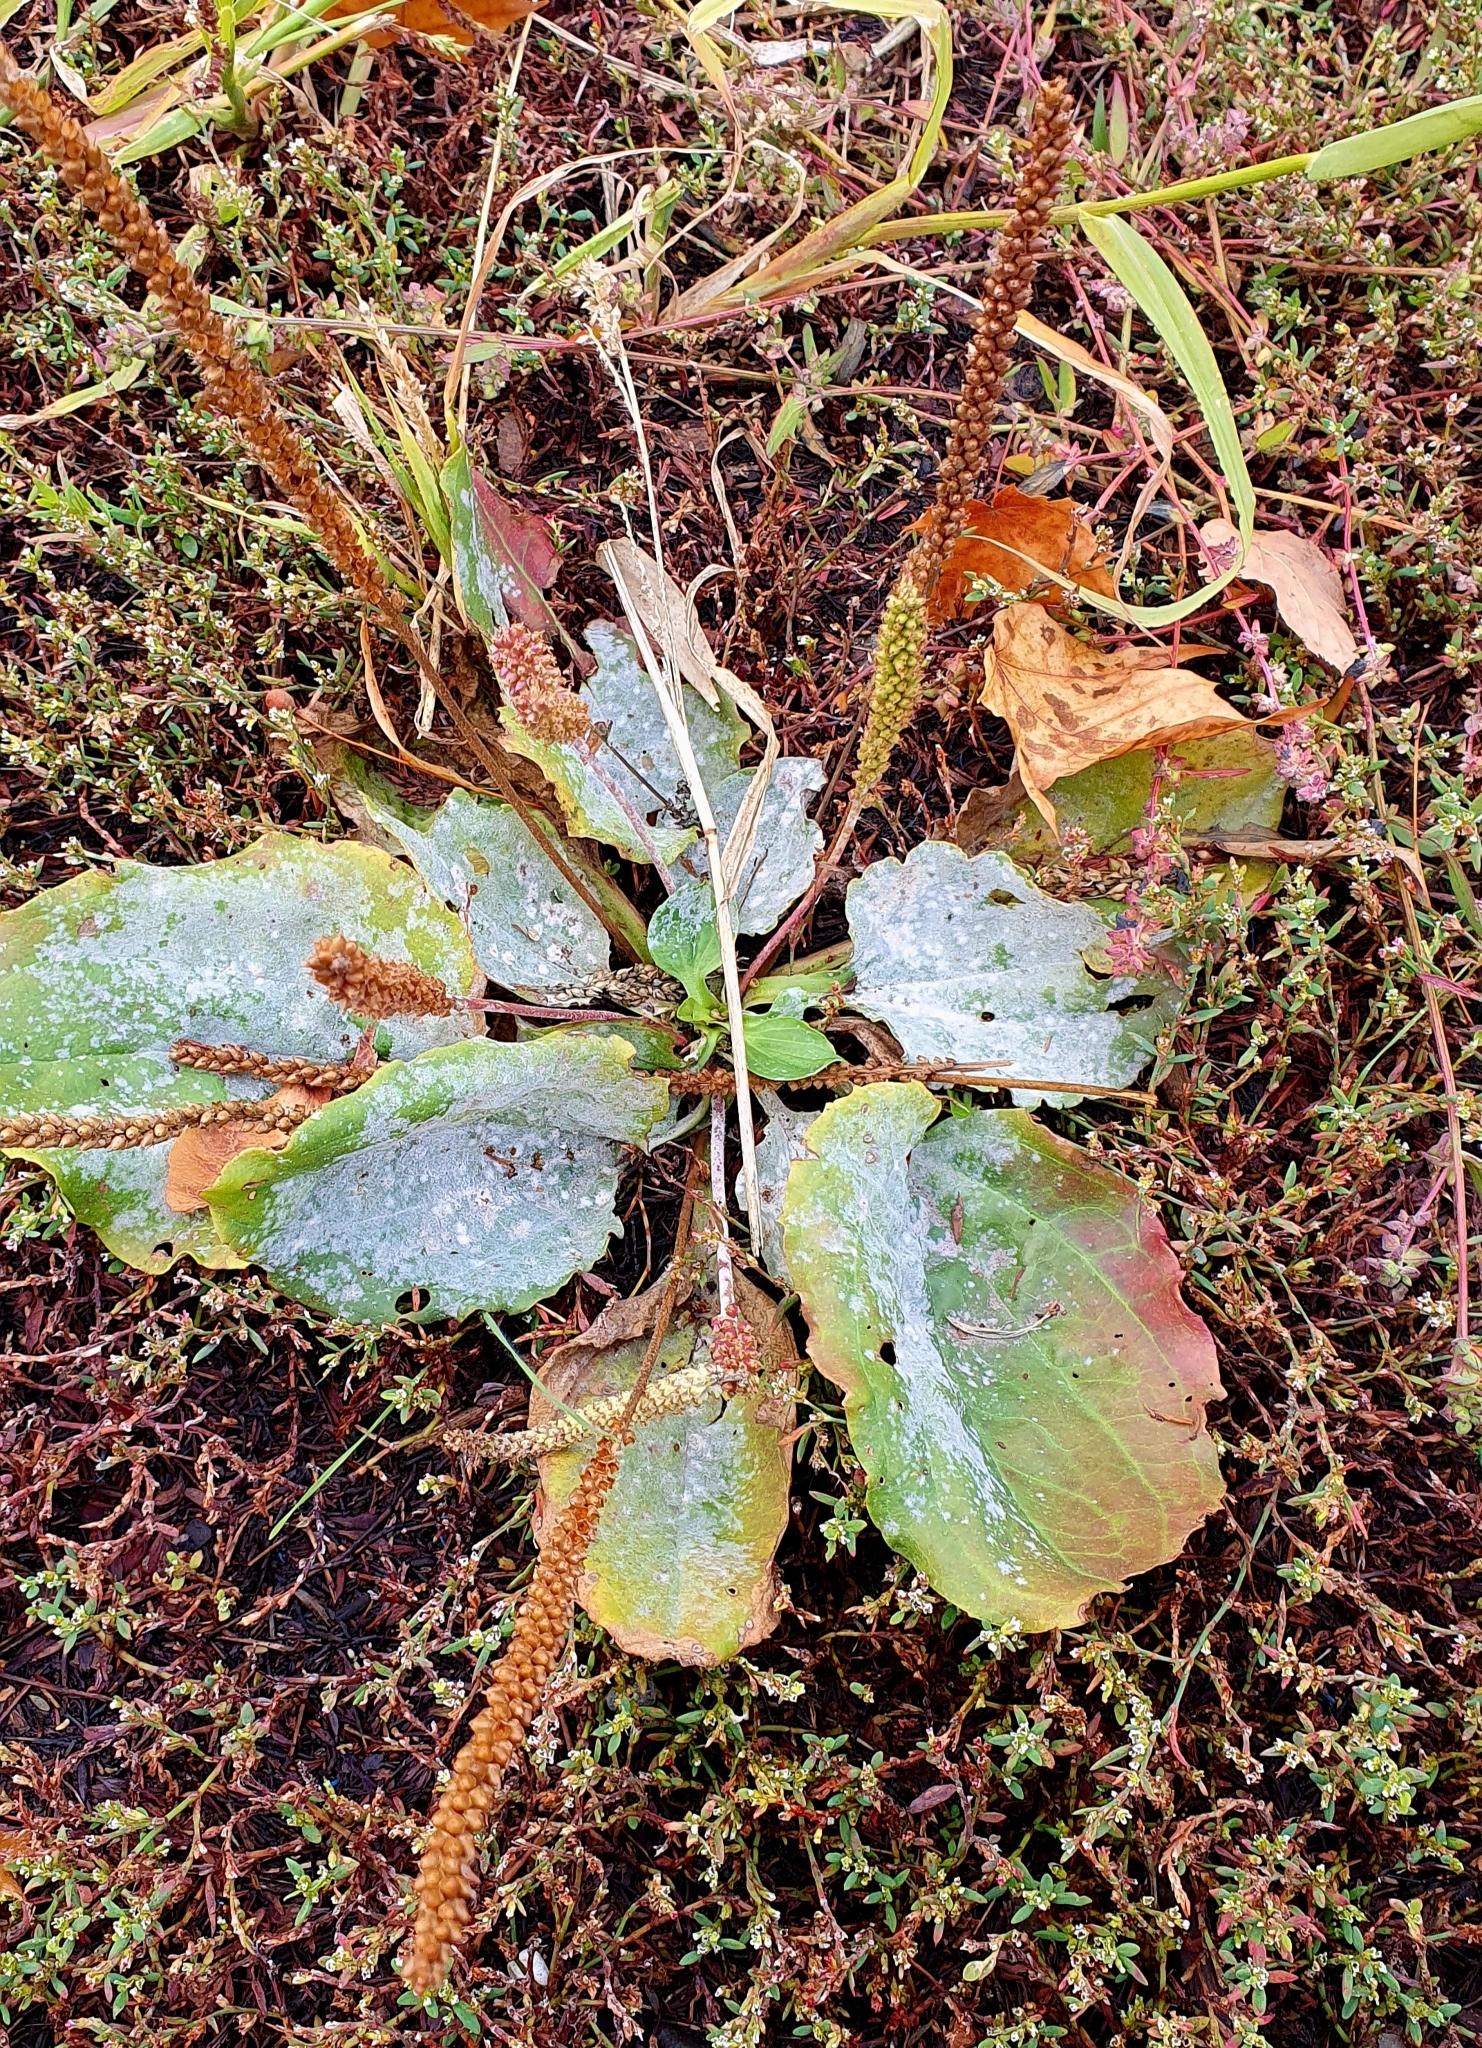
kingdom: Plantae
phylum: Tracheophyta
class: Magnoliopsida
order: Lamiales
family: Plantaginaceae
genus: Plantago
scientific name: Plantago major
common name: Common plantain
